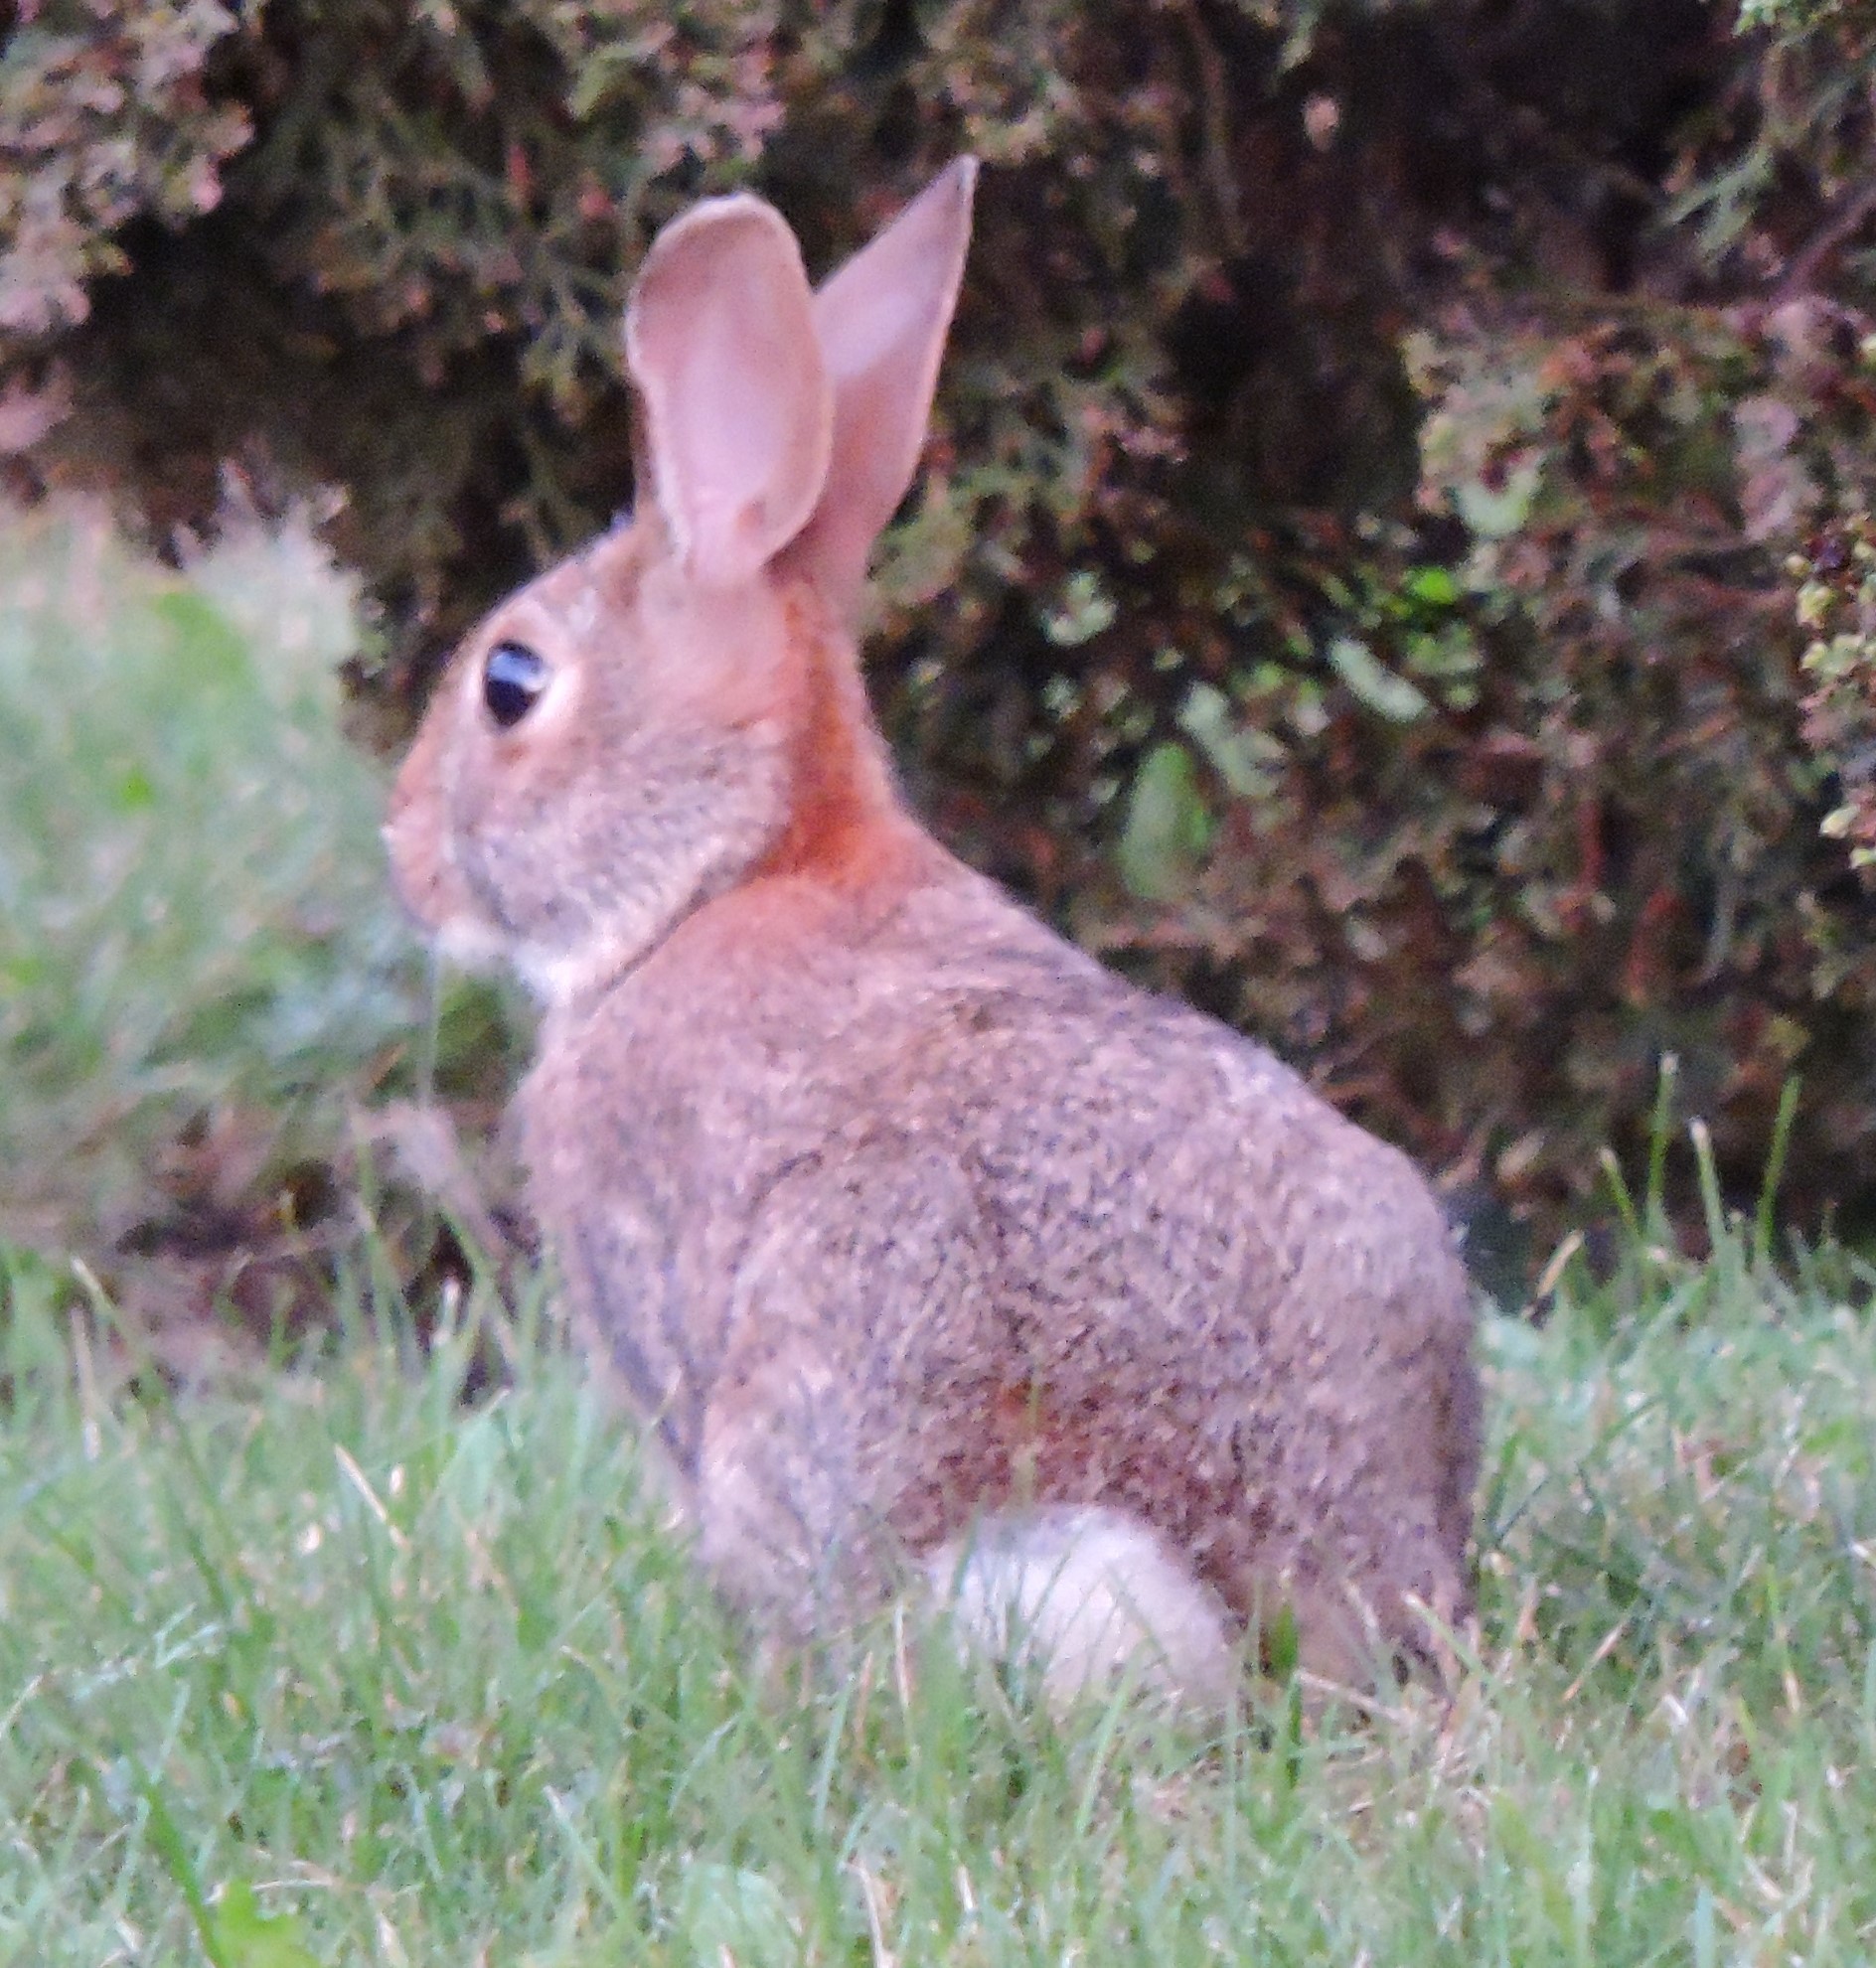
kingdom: Animalia
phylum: Chordata
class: Mammalia
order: Lagomorpha
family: Leporidae
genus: Sylvilagus
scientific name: Sylvilagus floridanus
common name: Eastern cottontail
